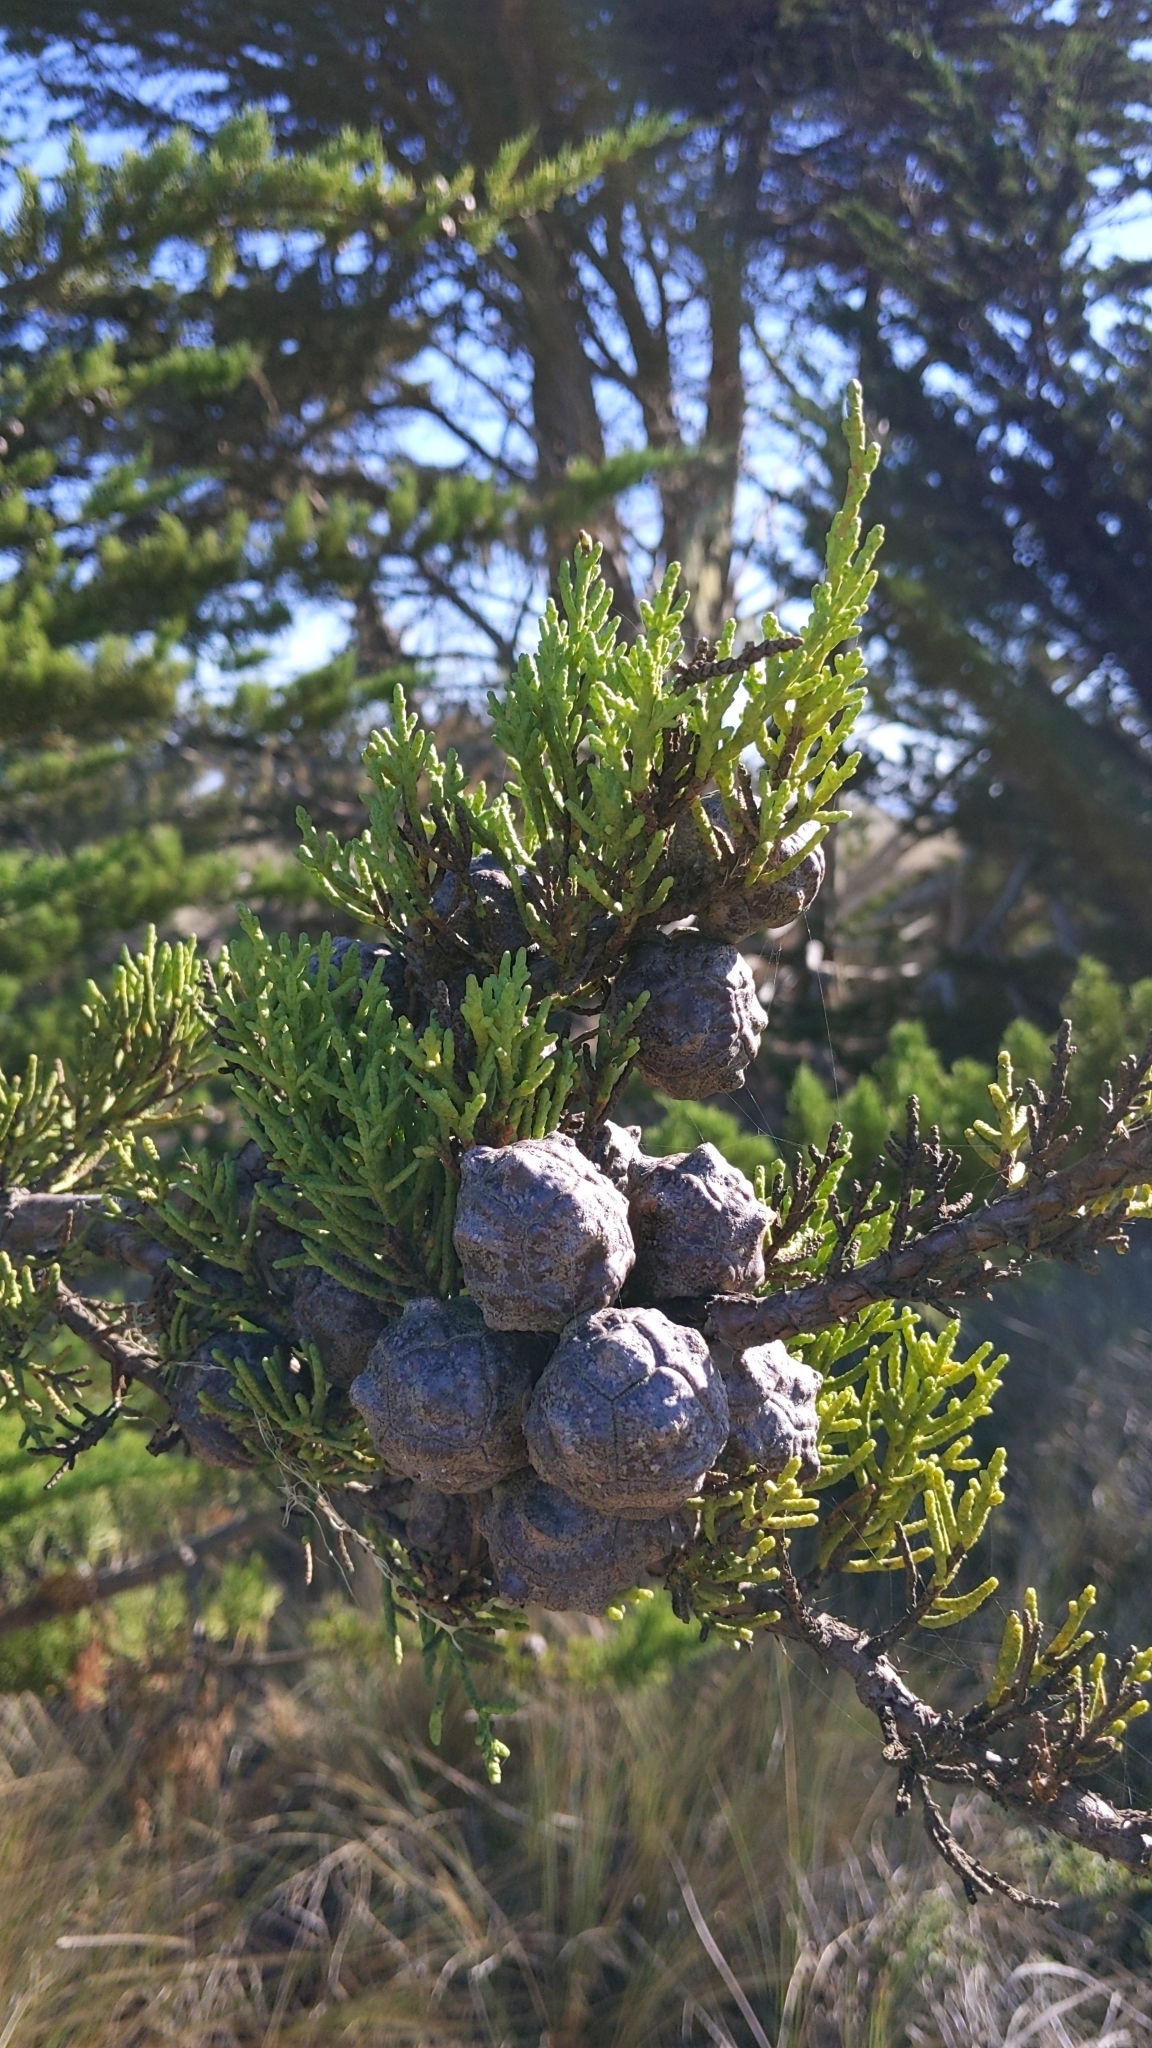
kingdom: Plantae
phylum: Tracheophyta
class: Pinopsida
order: Pinales
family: Cupressaceae
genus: Cupressus
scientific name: Cupressus macrocarpa
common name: Monterey cypress
